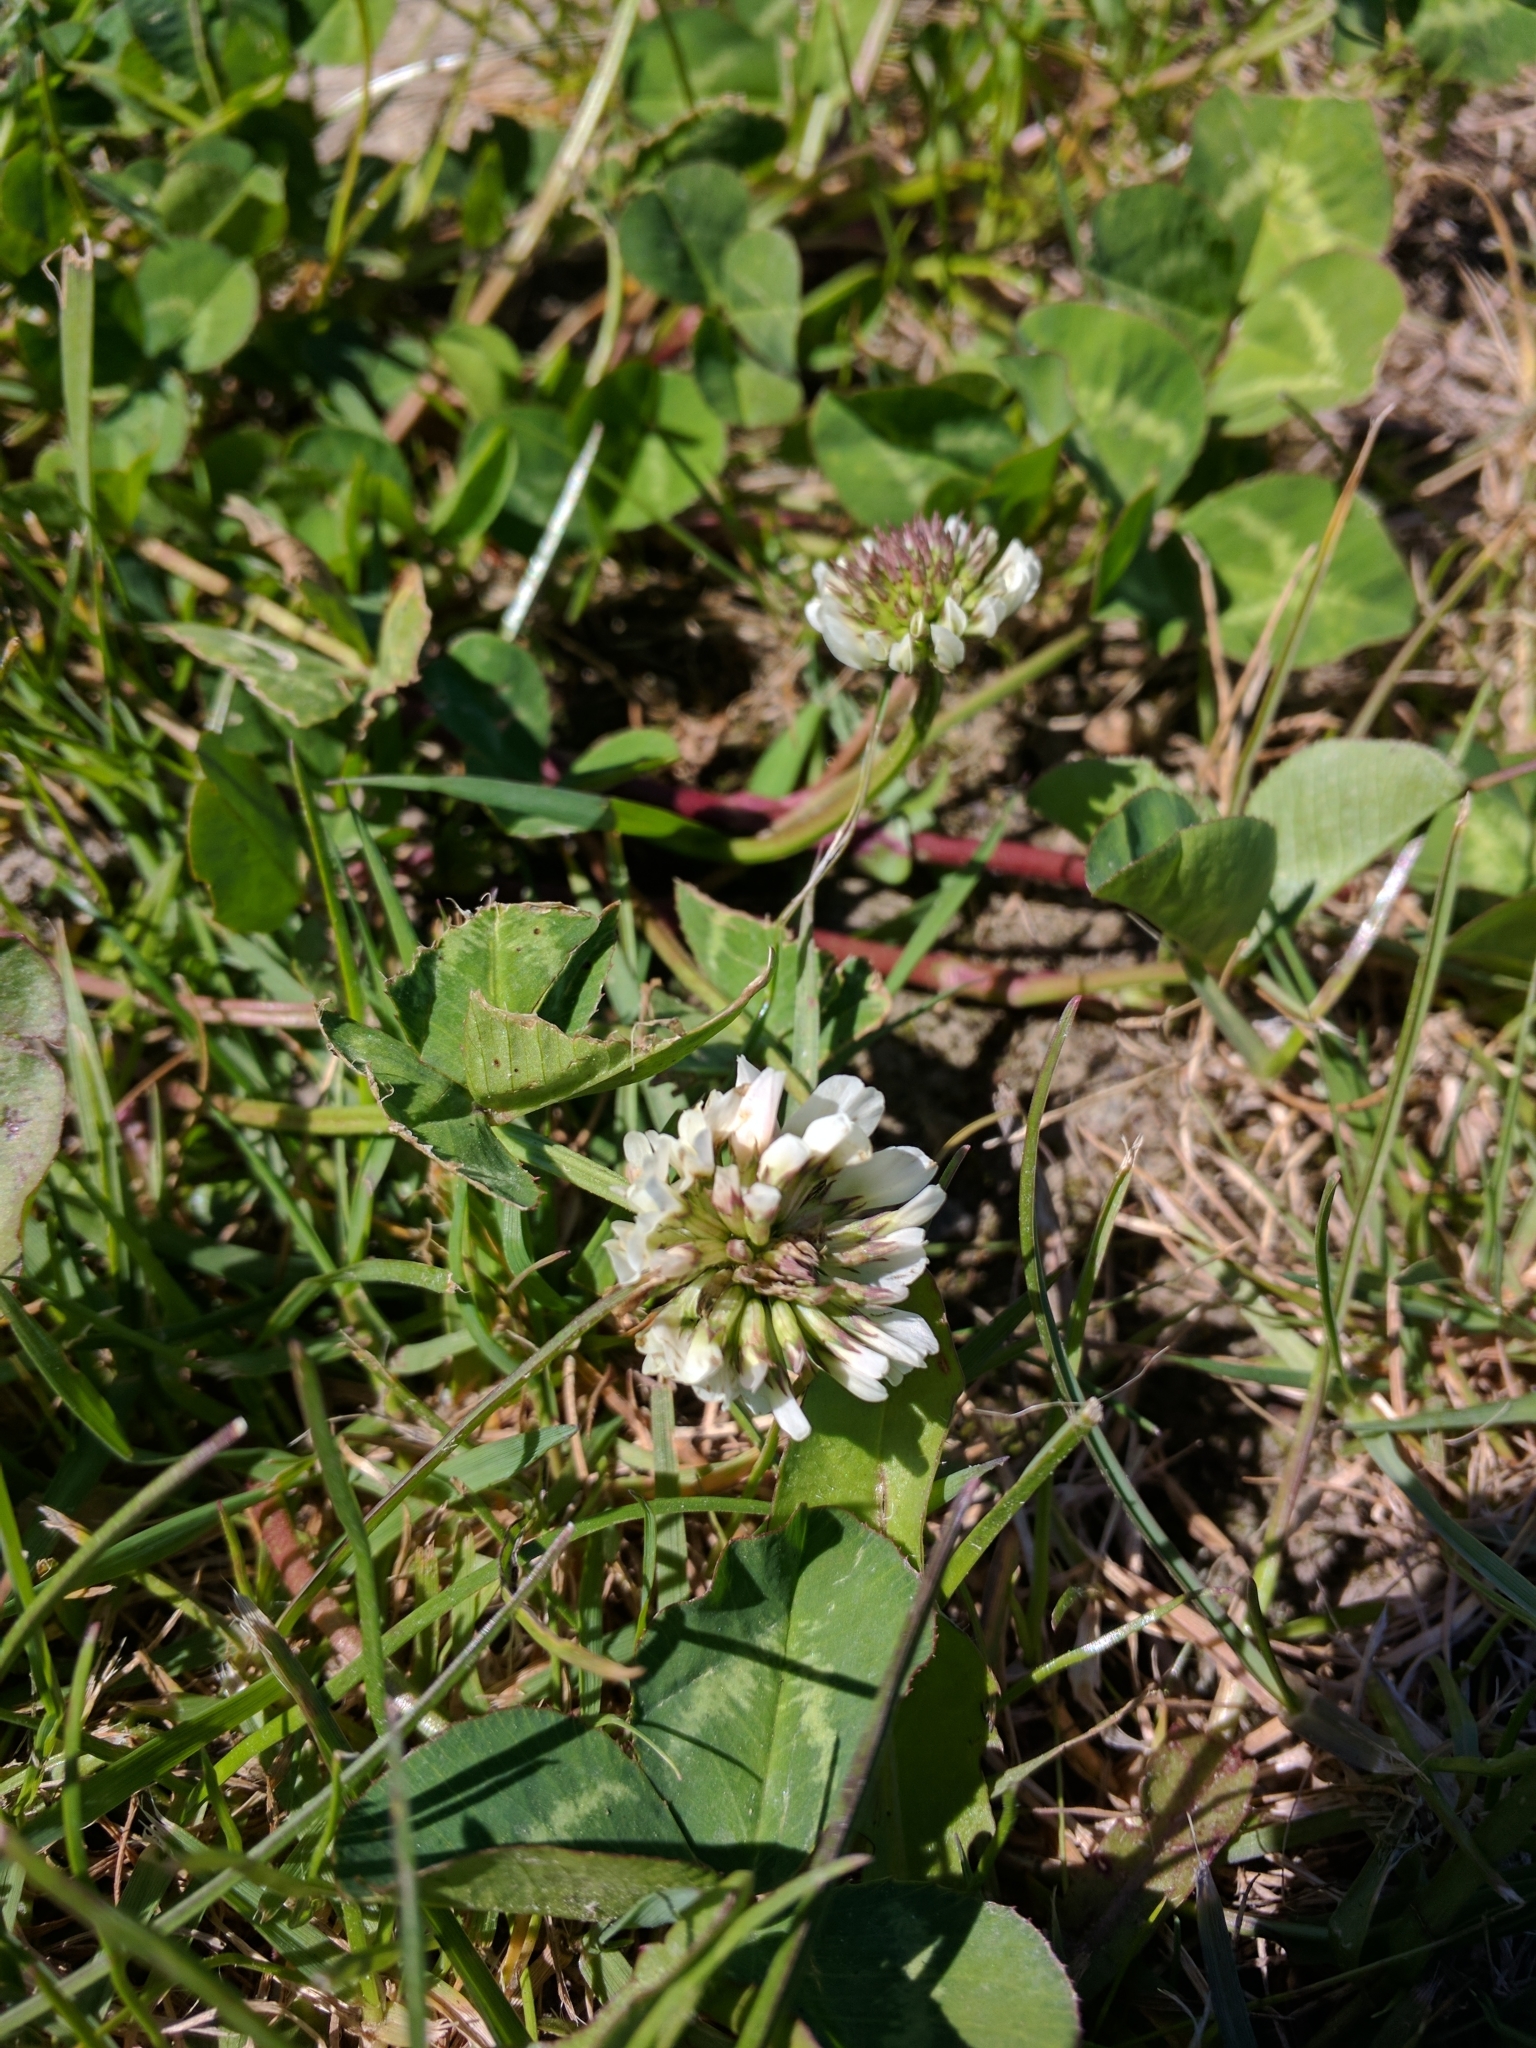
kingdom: Plantae
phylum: Tracheophyta
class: Magnoliopsida
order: Fabales
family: Fabaceae
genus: Trifolium
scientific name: Trifolium repens
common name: White clover
